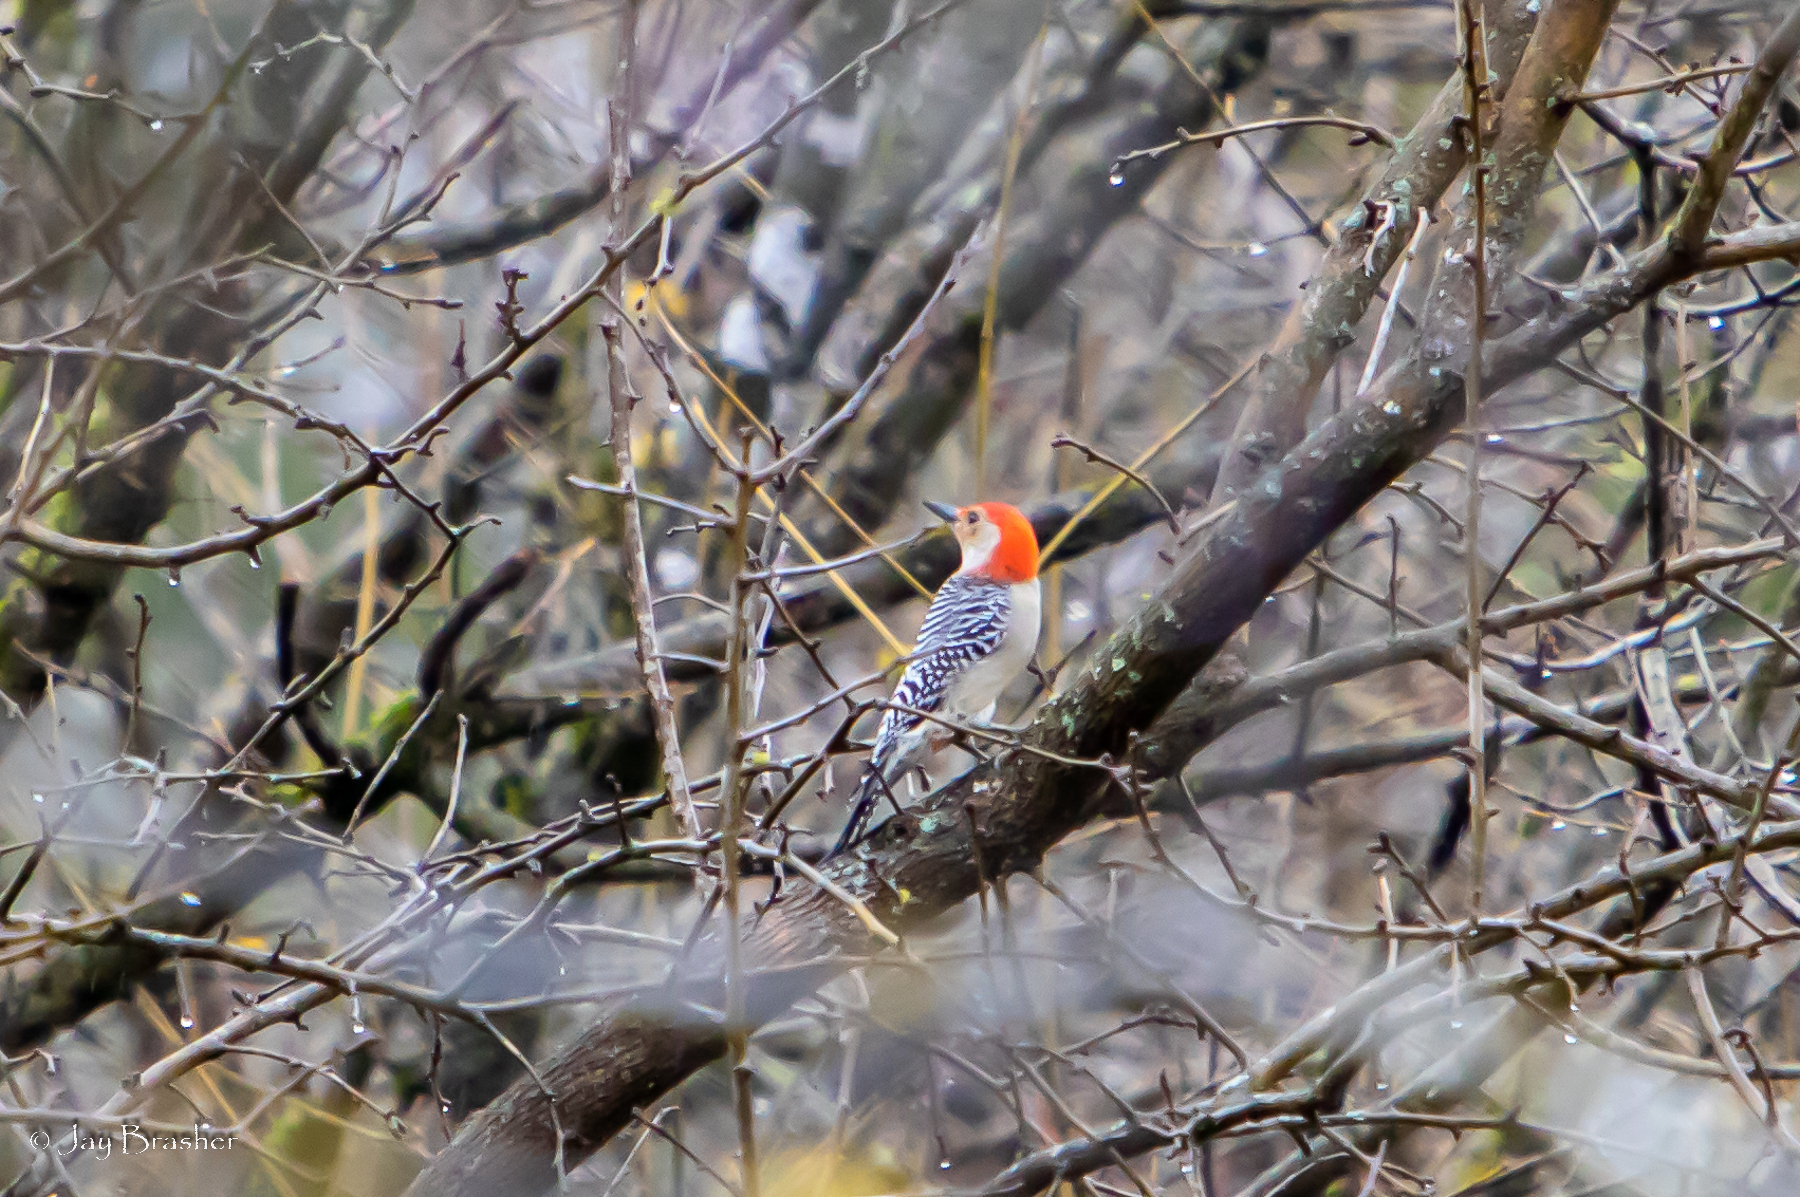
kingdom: Animalia
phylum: Chordata
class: Aves
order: Piciformes
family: Picidae
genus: Melanerpes
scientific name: Melanerpes carolinus
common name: Red-bellied woodpecker
